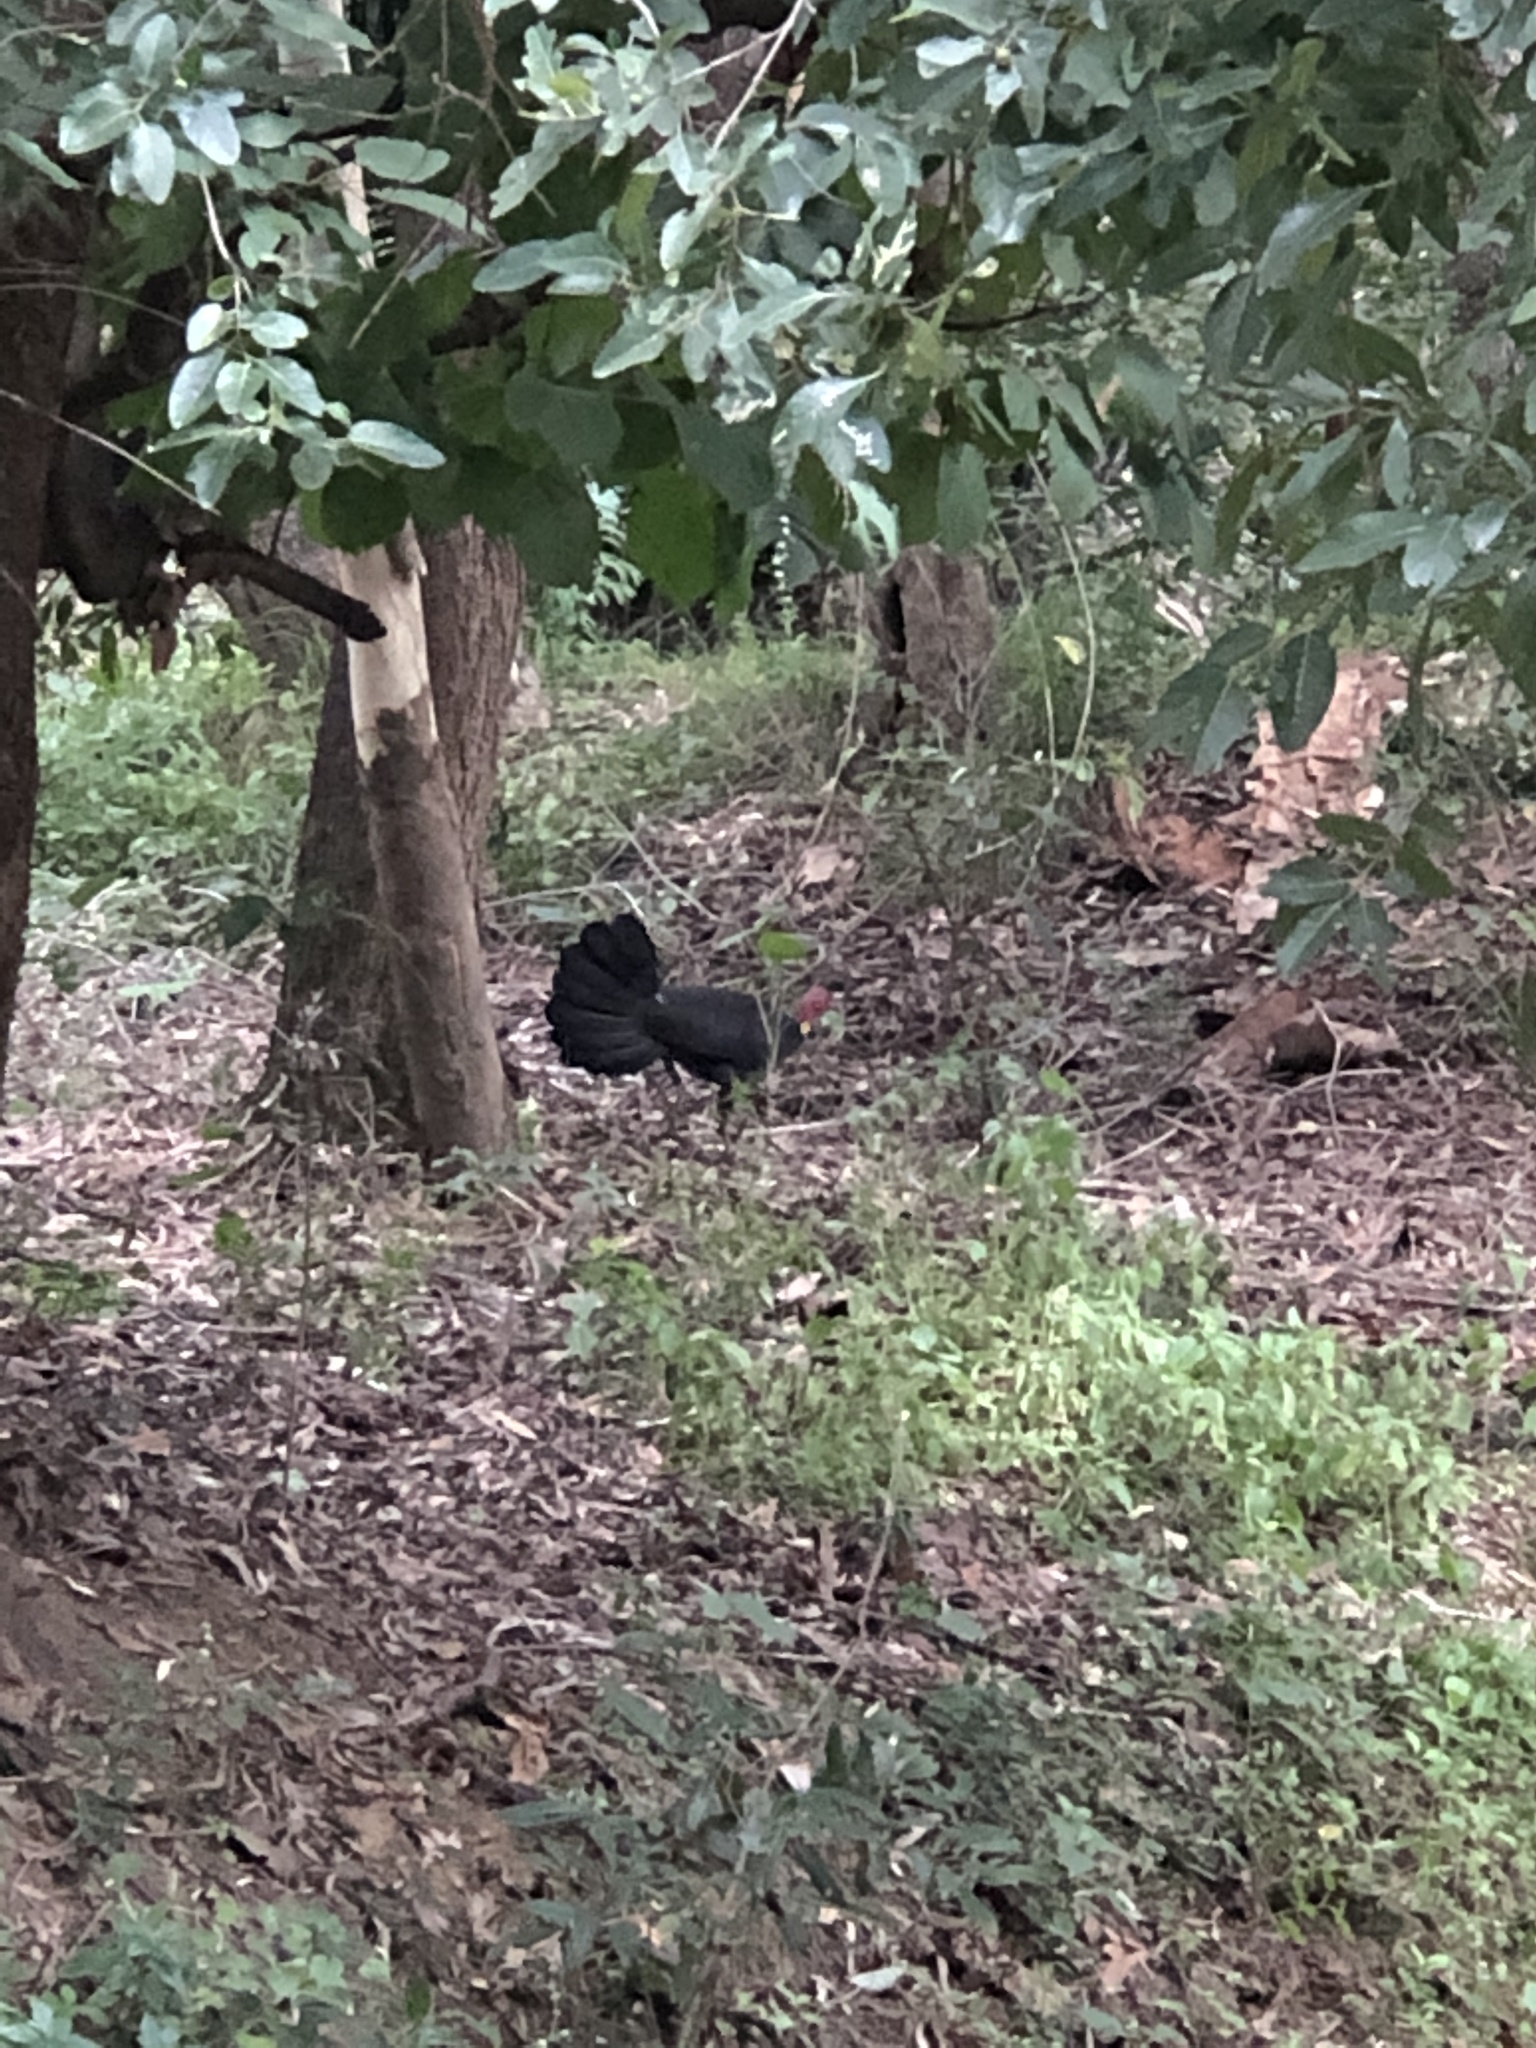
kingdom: Animalia
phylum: Chordata
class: Aves
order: Galliformes
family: Megapodiidae
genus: Alectura
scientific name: Alectura lathami
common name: Australian brushturkey
